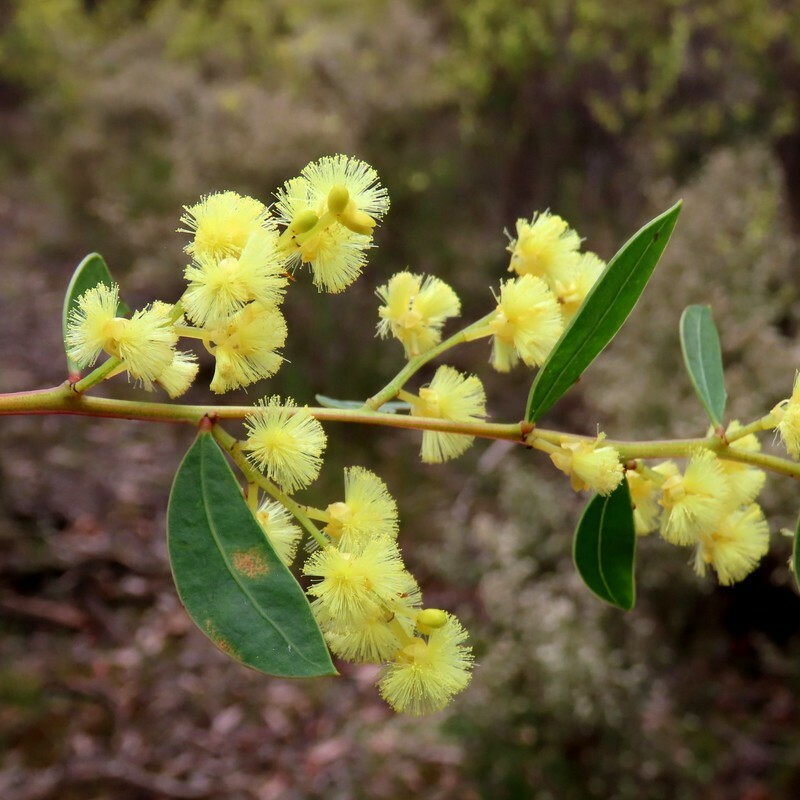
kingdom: Plantae
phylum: Tracheophyta
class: Magnoliopsida
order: Fabales
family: Fabaceae
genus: Acacia
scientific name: Acacia myrtifolia
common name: Myrtle wattle
